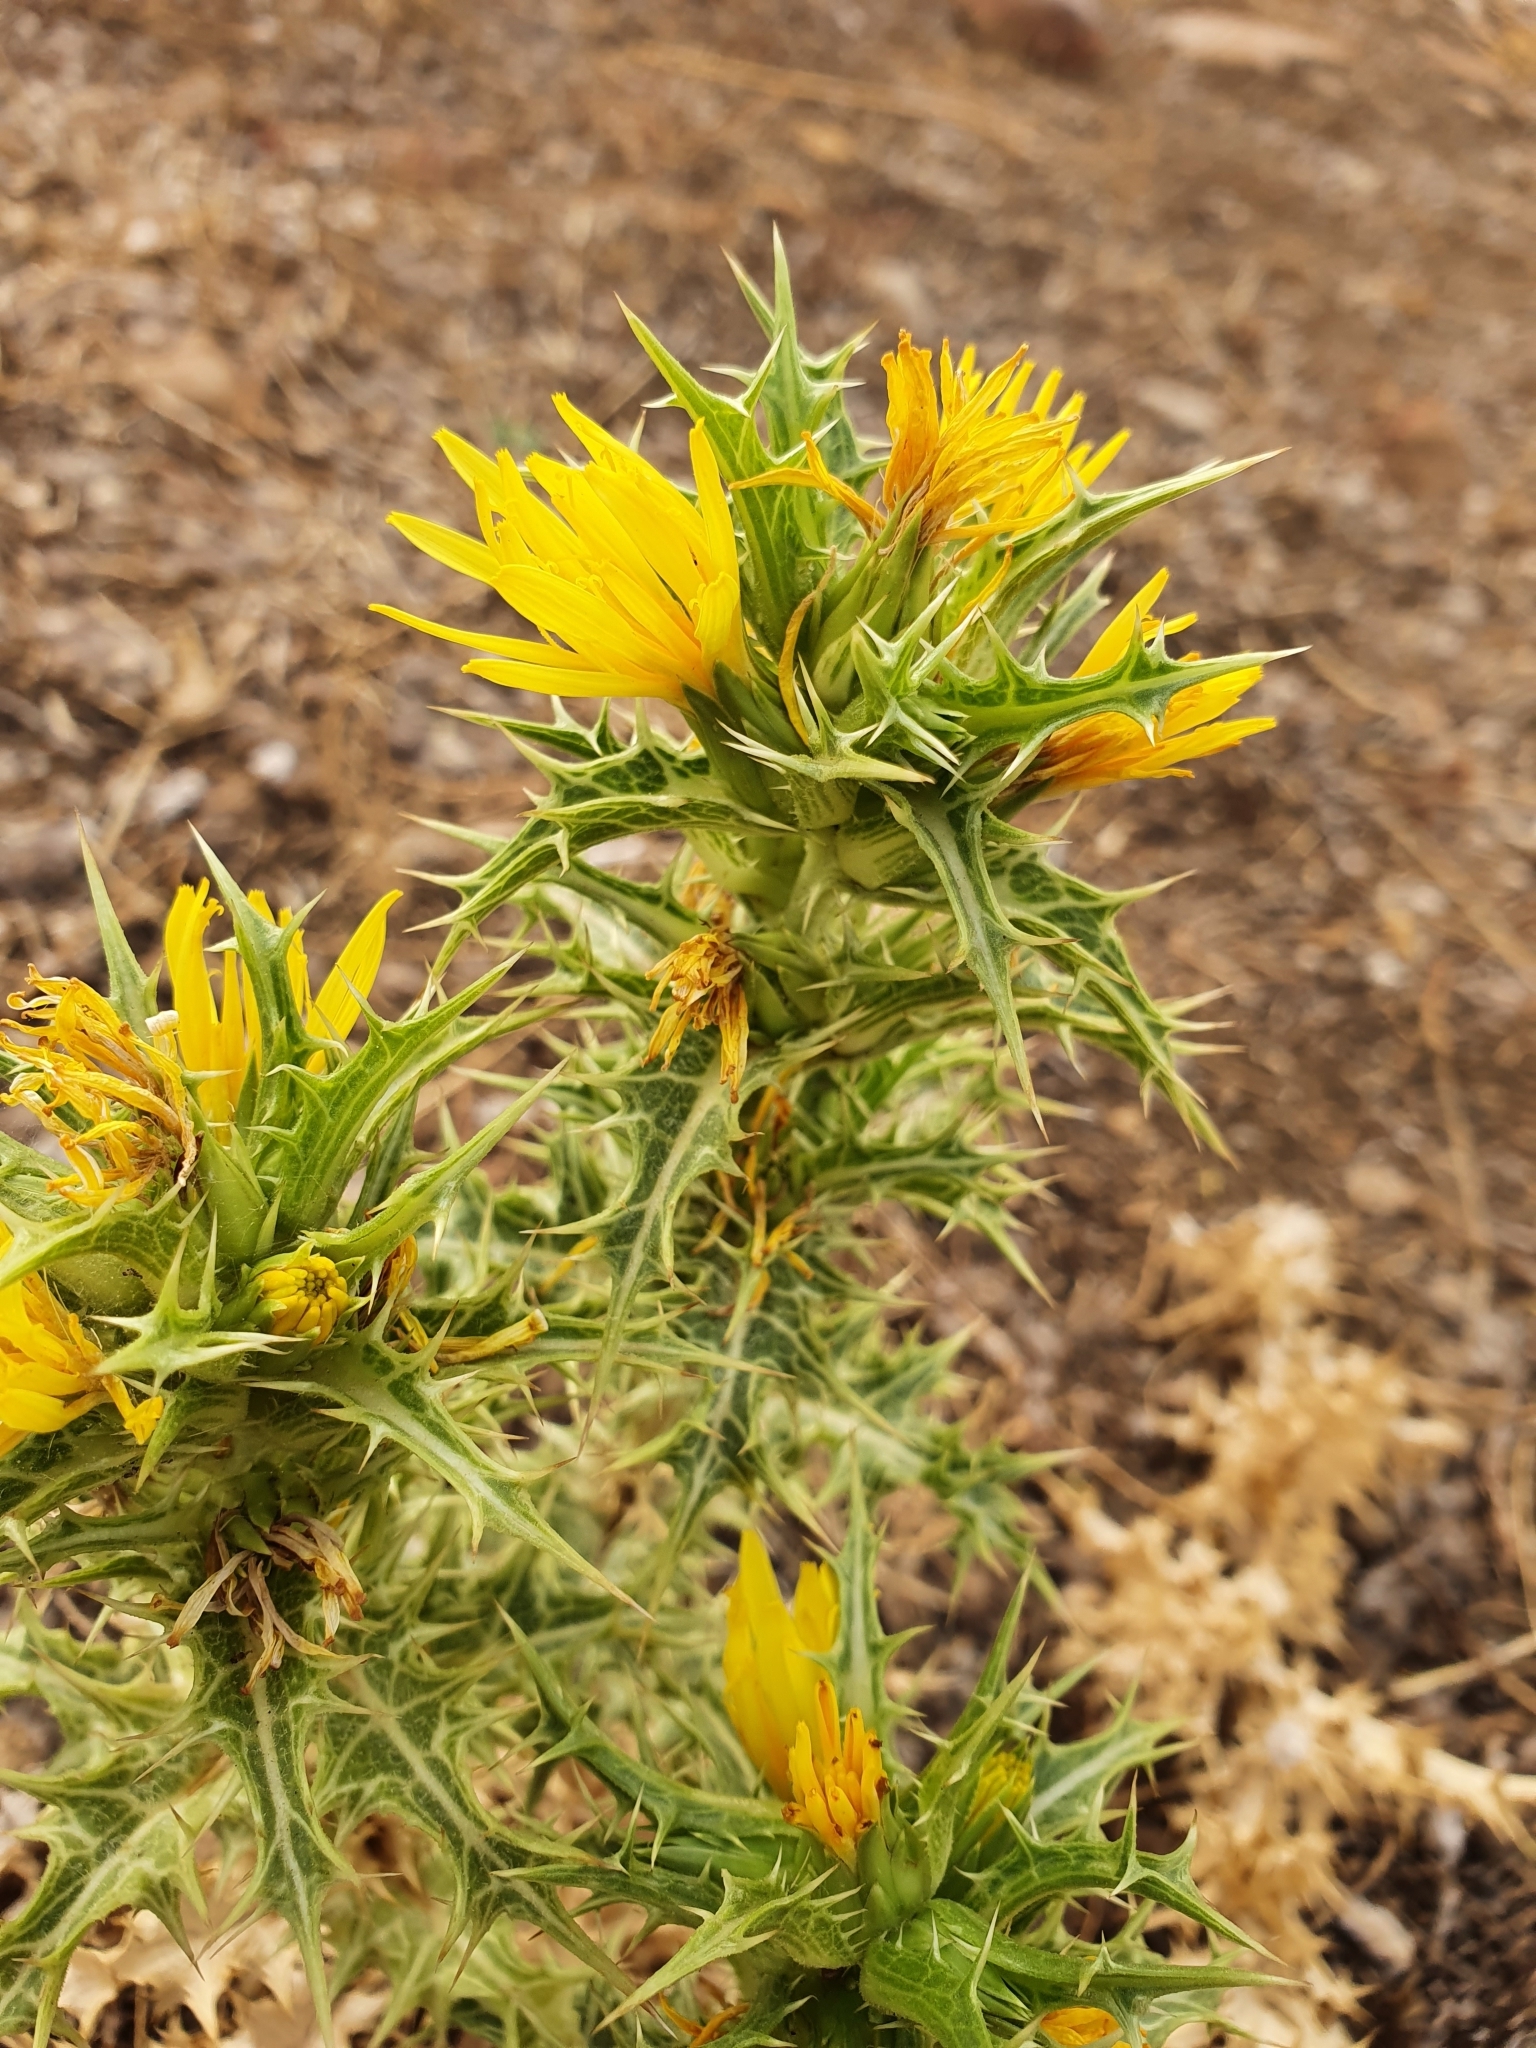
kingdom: Plantae
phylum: Tracheophyta
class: Magnoliopsida
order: Asterales
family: Asteraceae
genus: Scolymus
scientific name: Scolymus hispanicus
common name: Golden thistle
